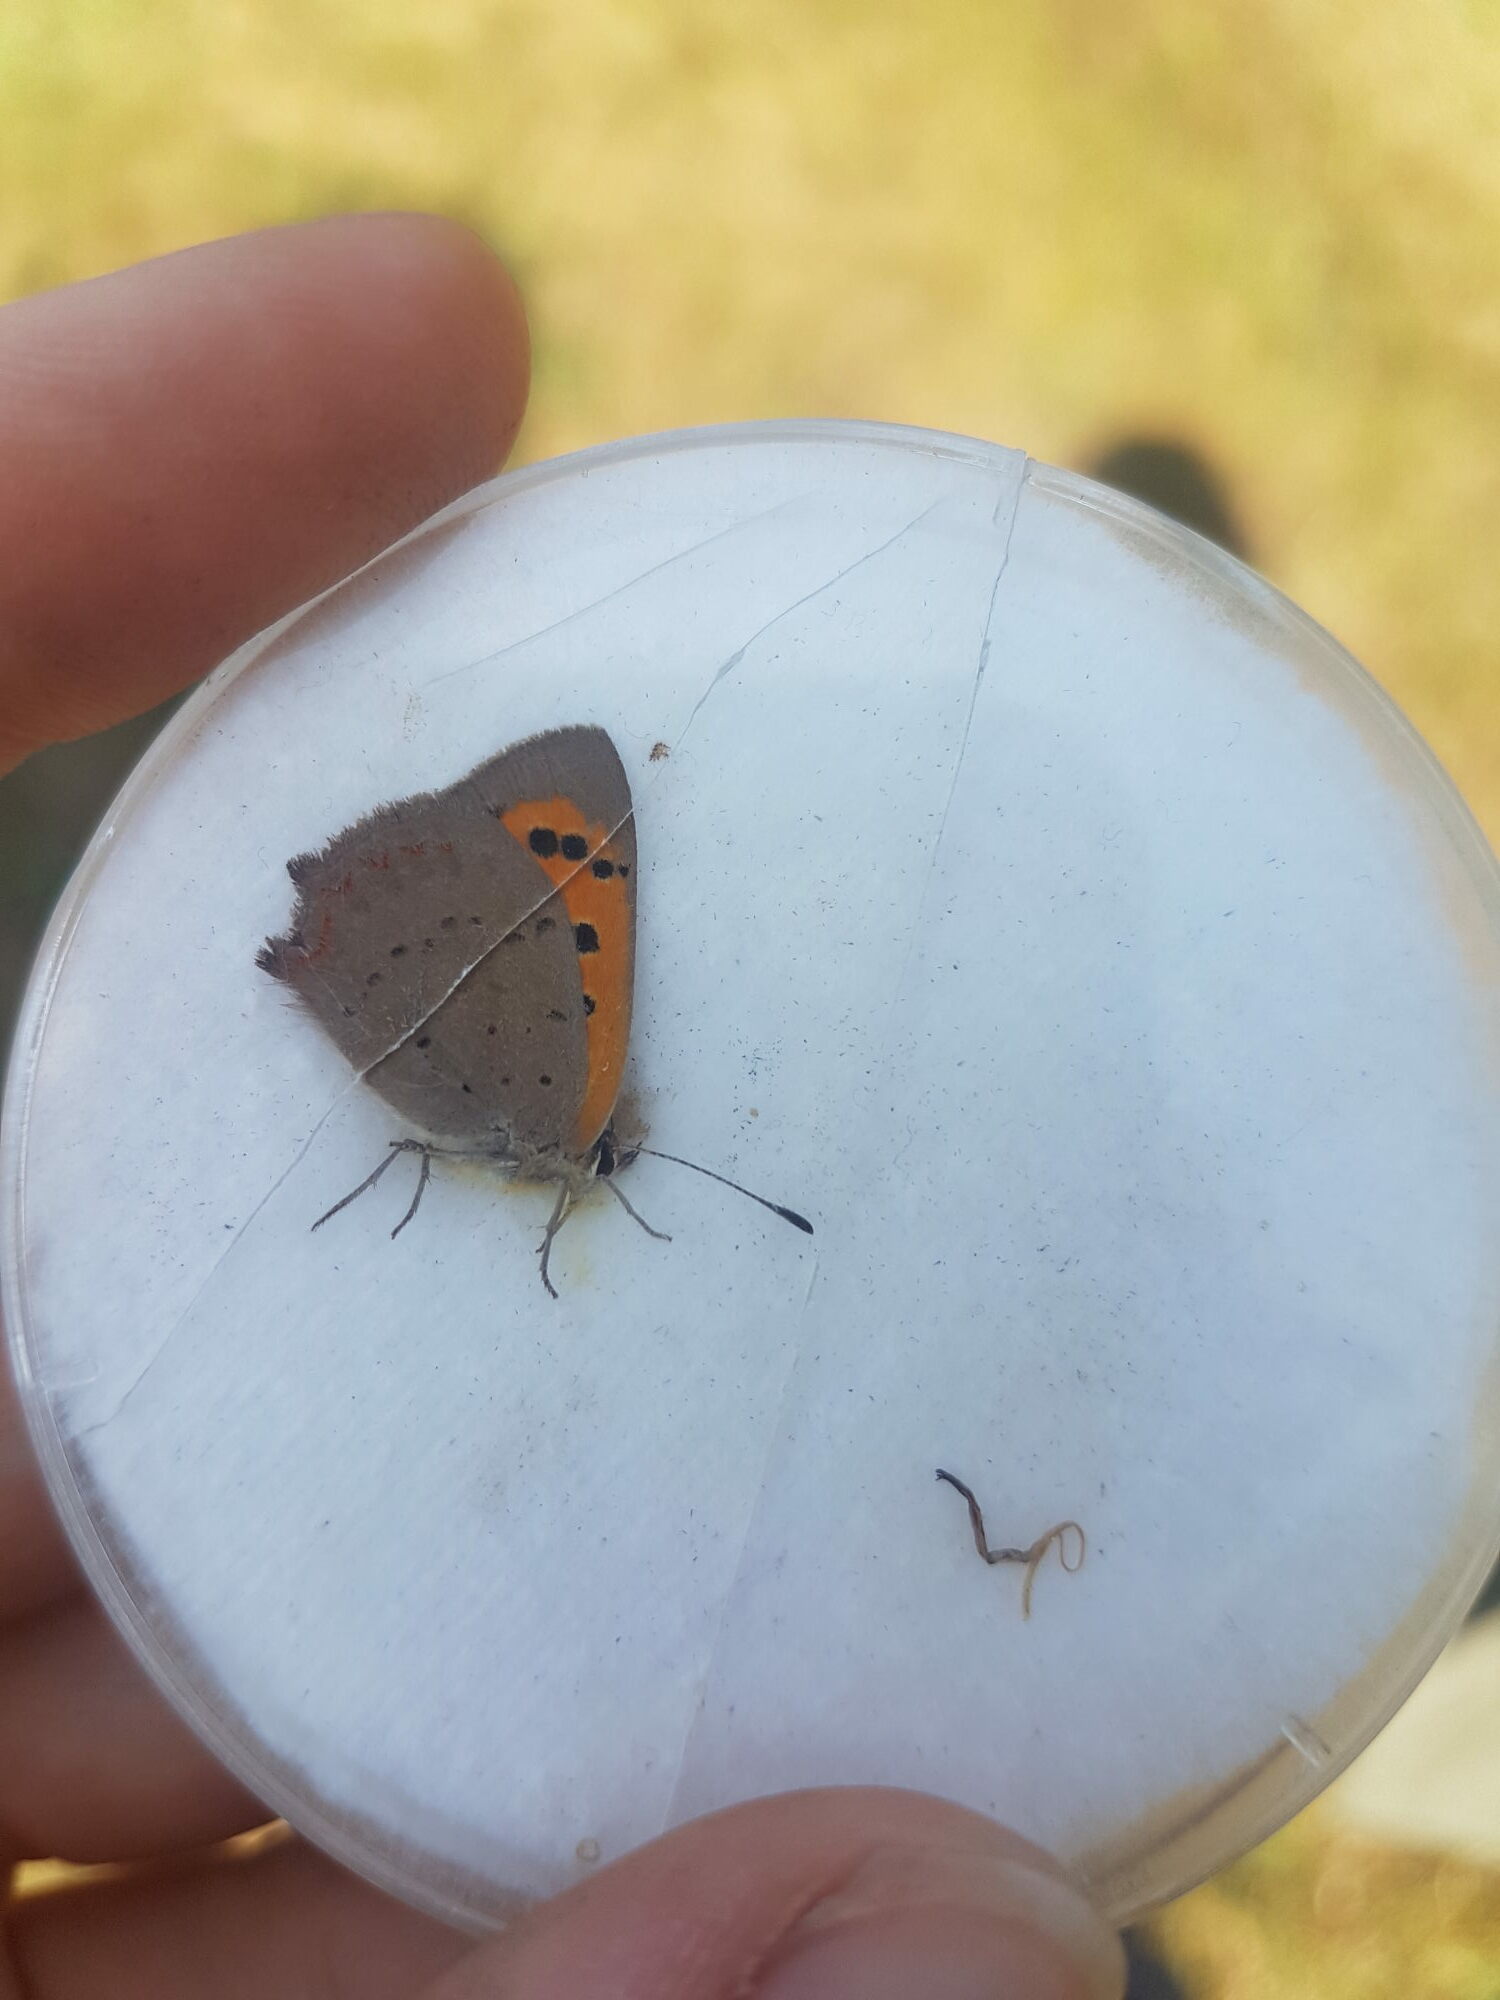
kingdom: Animalia
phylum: Arthropoda
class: Insecta
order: Lepidoptera
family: Lycaenidae
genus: Lycaena
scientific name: Lycaena phlaeas
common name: Small copper
